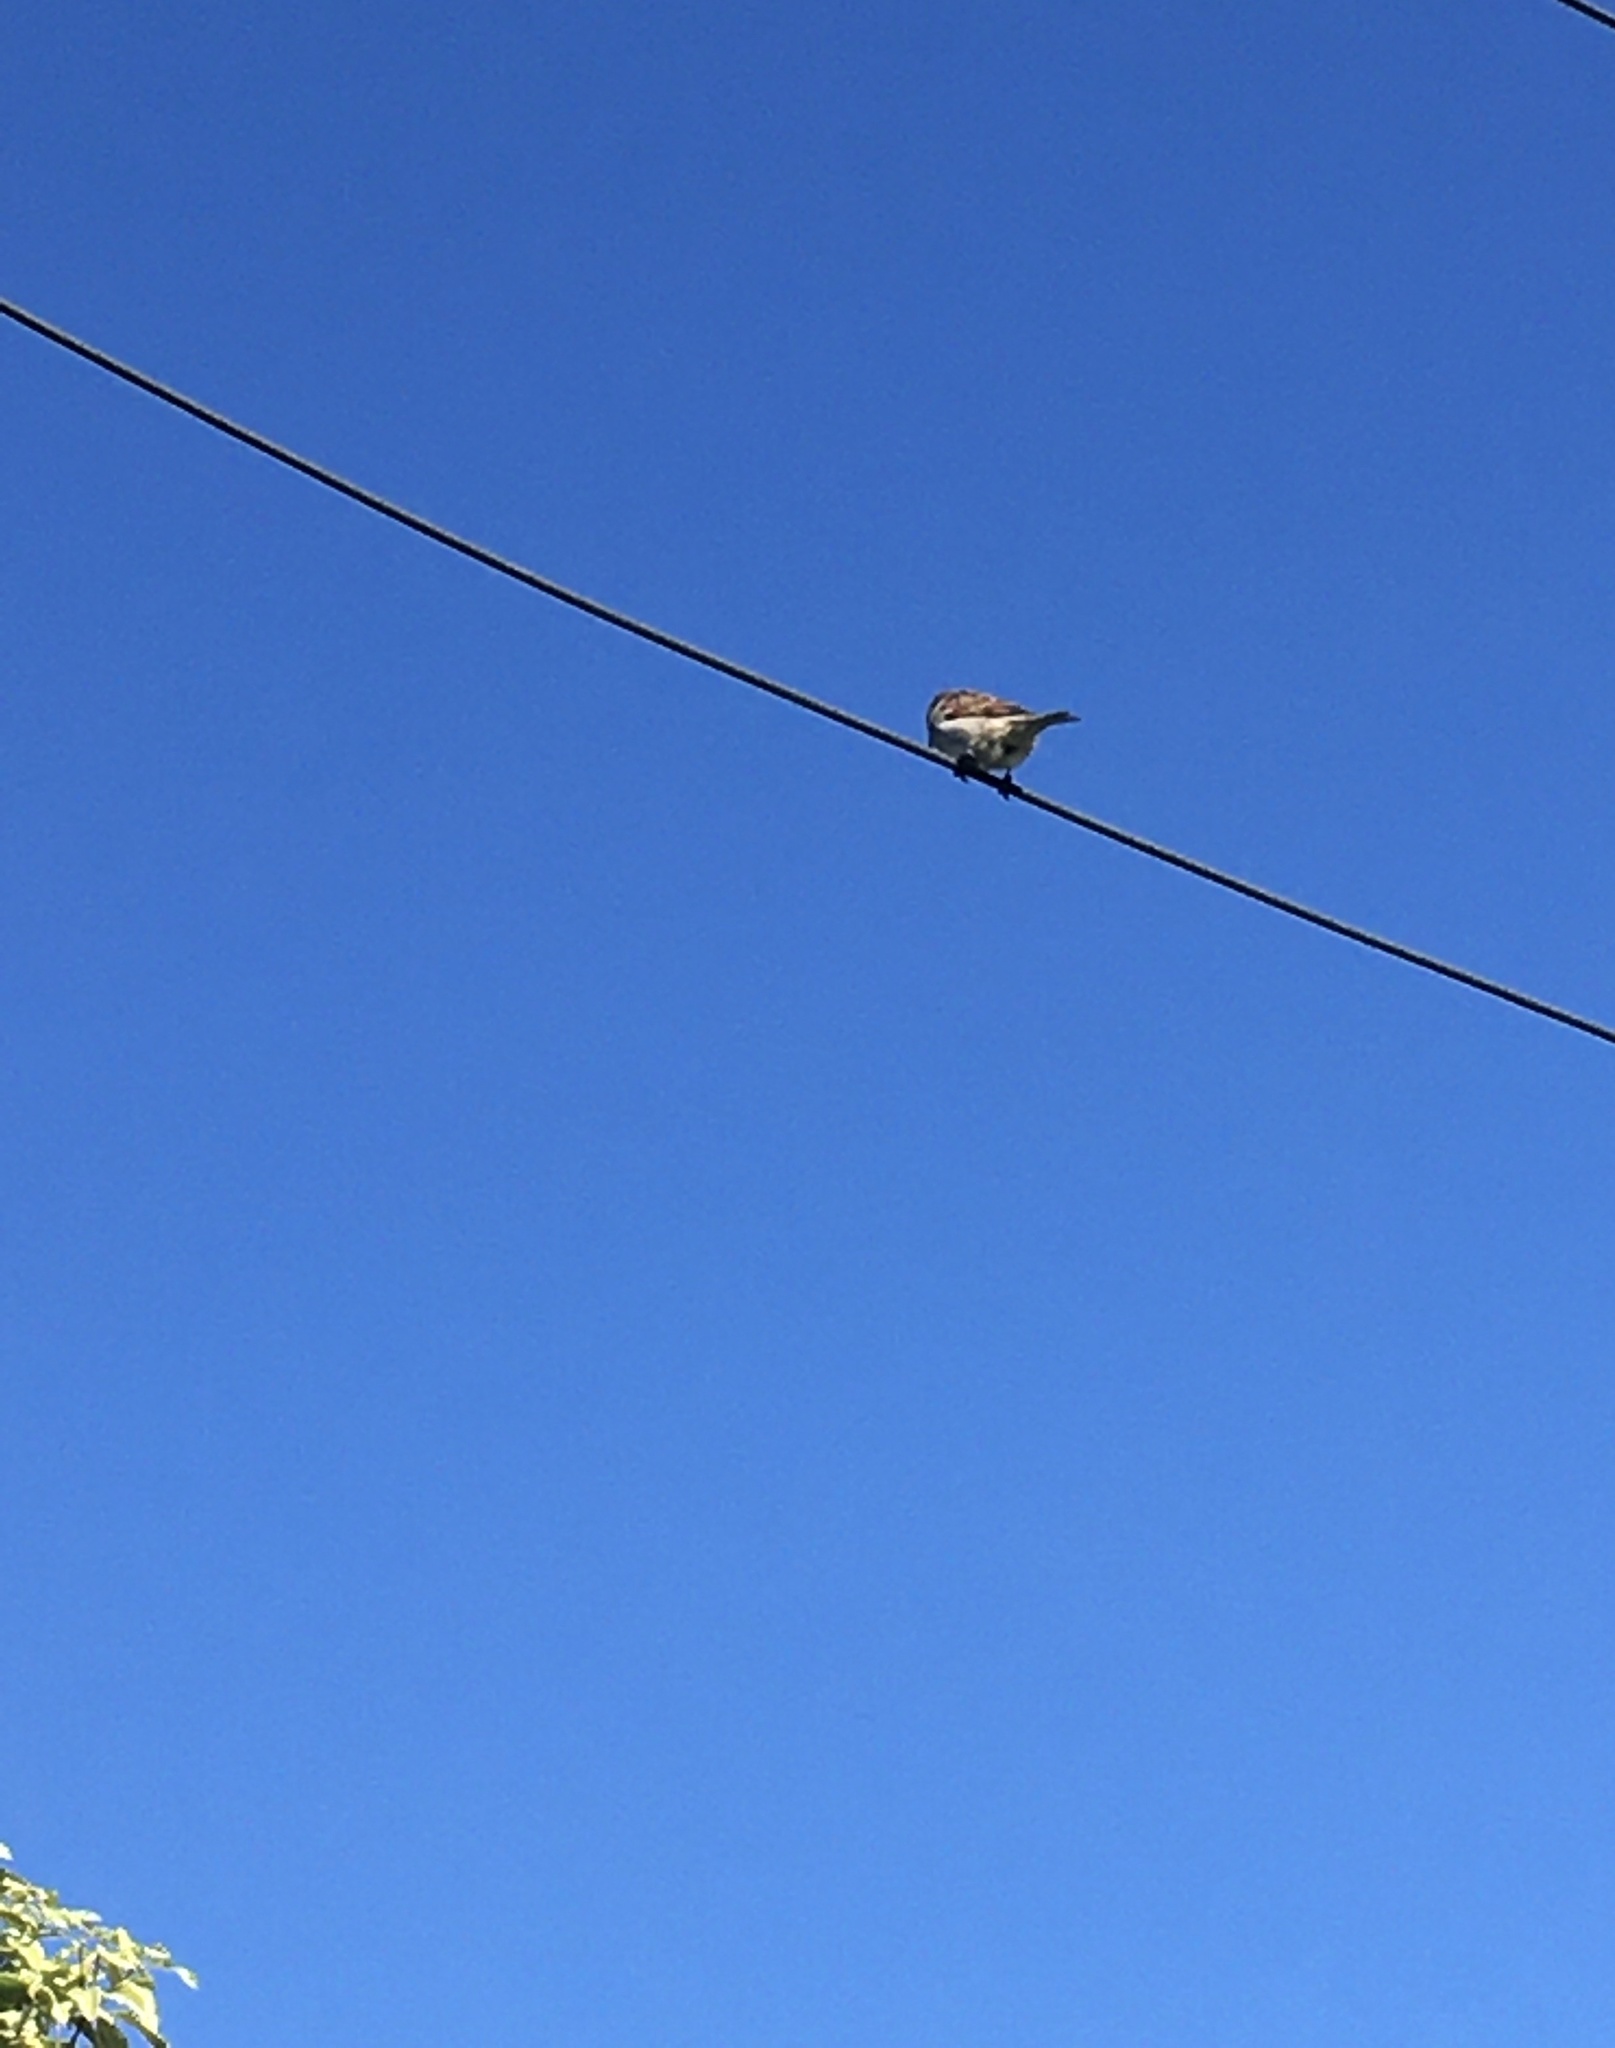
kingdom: Animalia
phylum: Chordata
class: Aves
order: Passeriformes
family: Passeridae
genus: Passer
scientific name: Passer domesticus
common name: House sparrow
